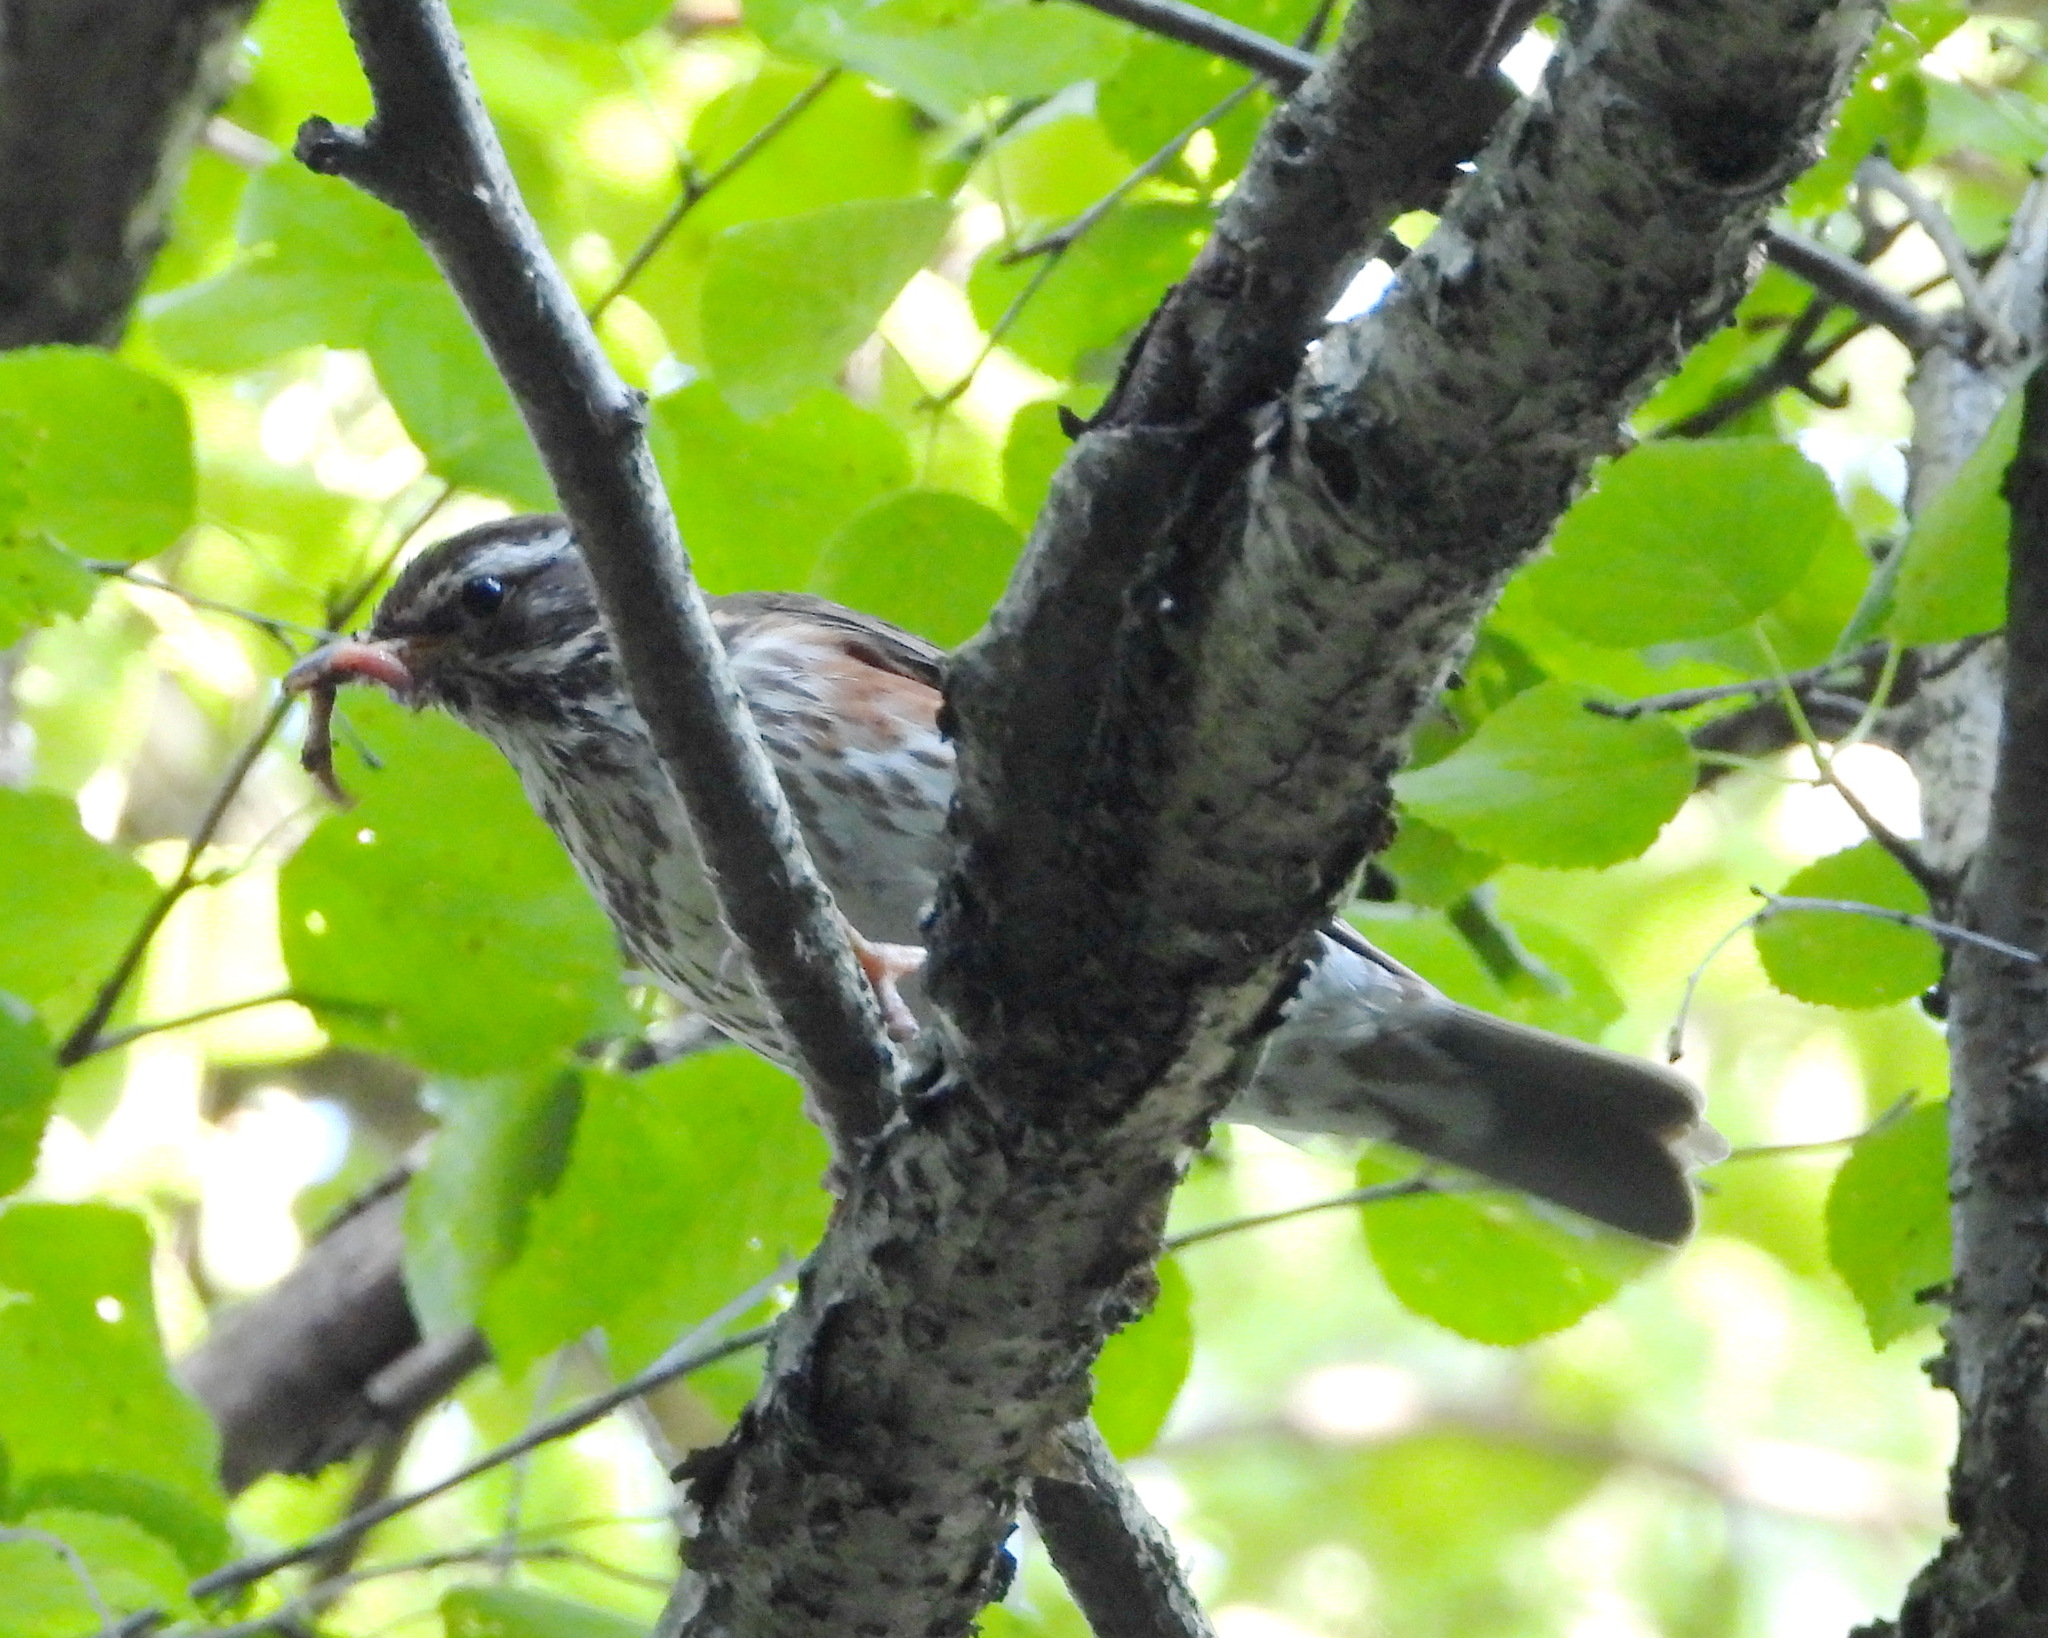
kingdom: Animalia
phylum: Chordata
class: Aves
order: Passeriformes
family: Turdidae
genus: Turdus
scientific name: Turdus iliacus
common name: Redwing
